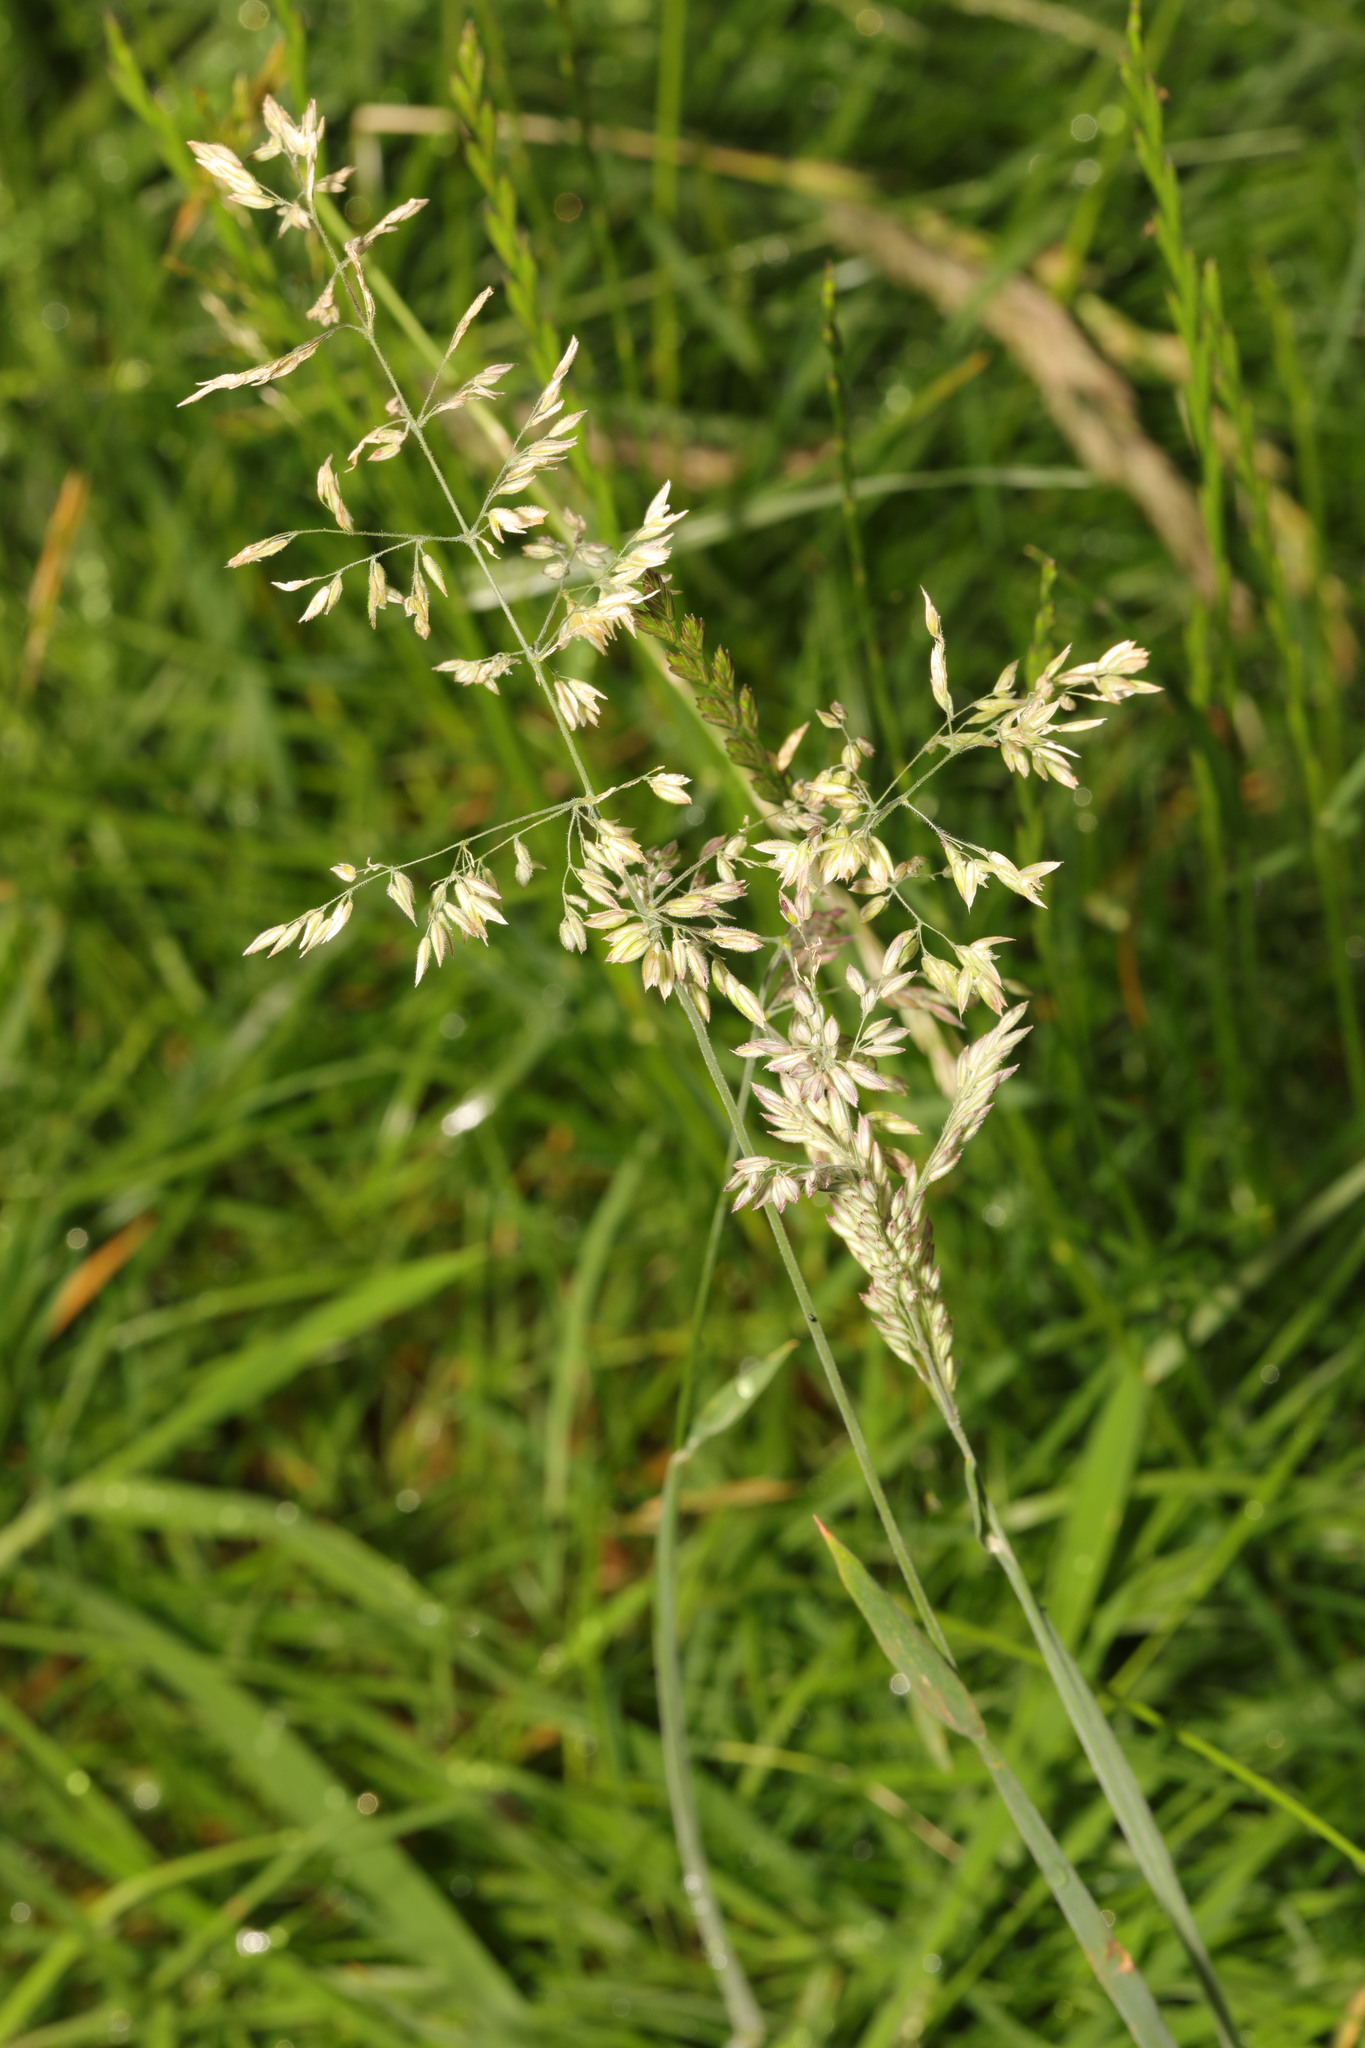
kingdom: Plantae
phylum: Tracheophyta
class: Liliopsida
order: Poales
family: Poaceae
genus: Holcus
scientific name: Holcus lanatus
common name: Yorkshire-fog
